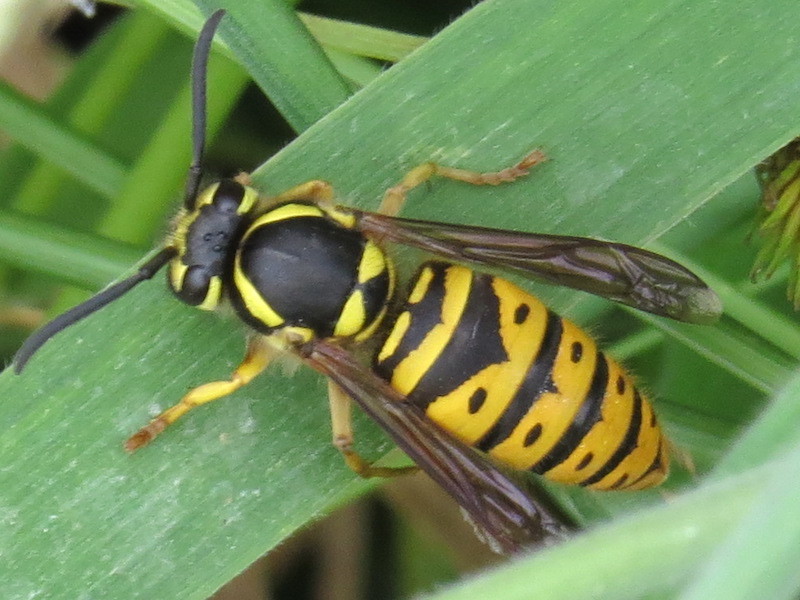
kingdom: Animalia
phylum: Arthropoda
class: Insecta
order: Hymenoptera
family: Vespidae
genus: Vespula
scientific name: Vespula maculifrons
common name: Eastern yellowjacket
